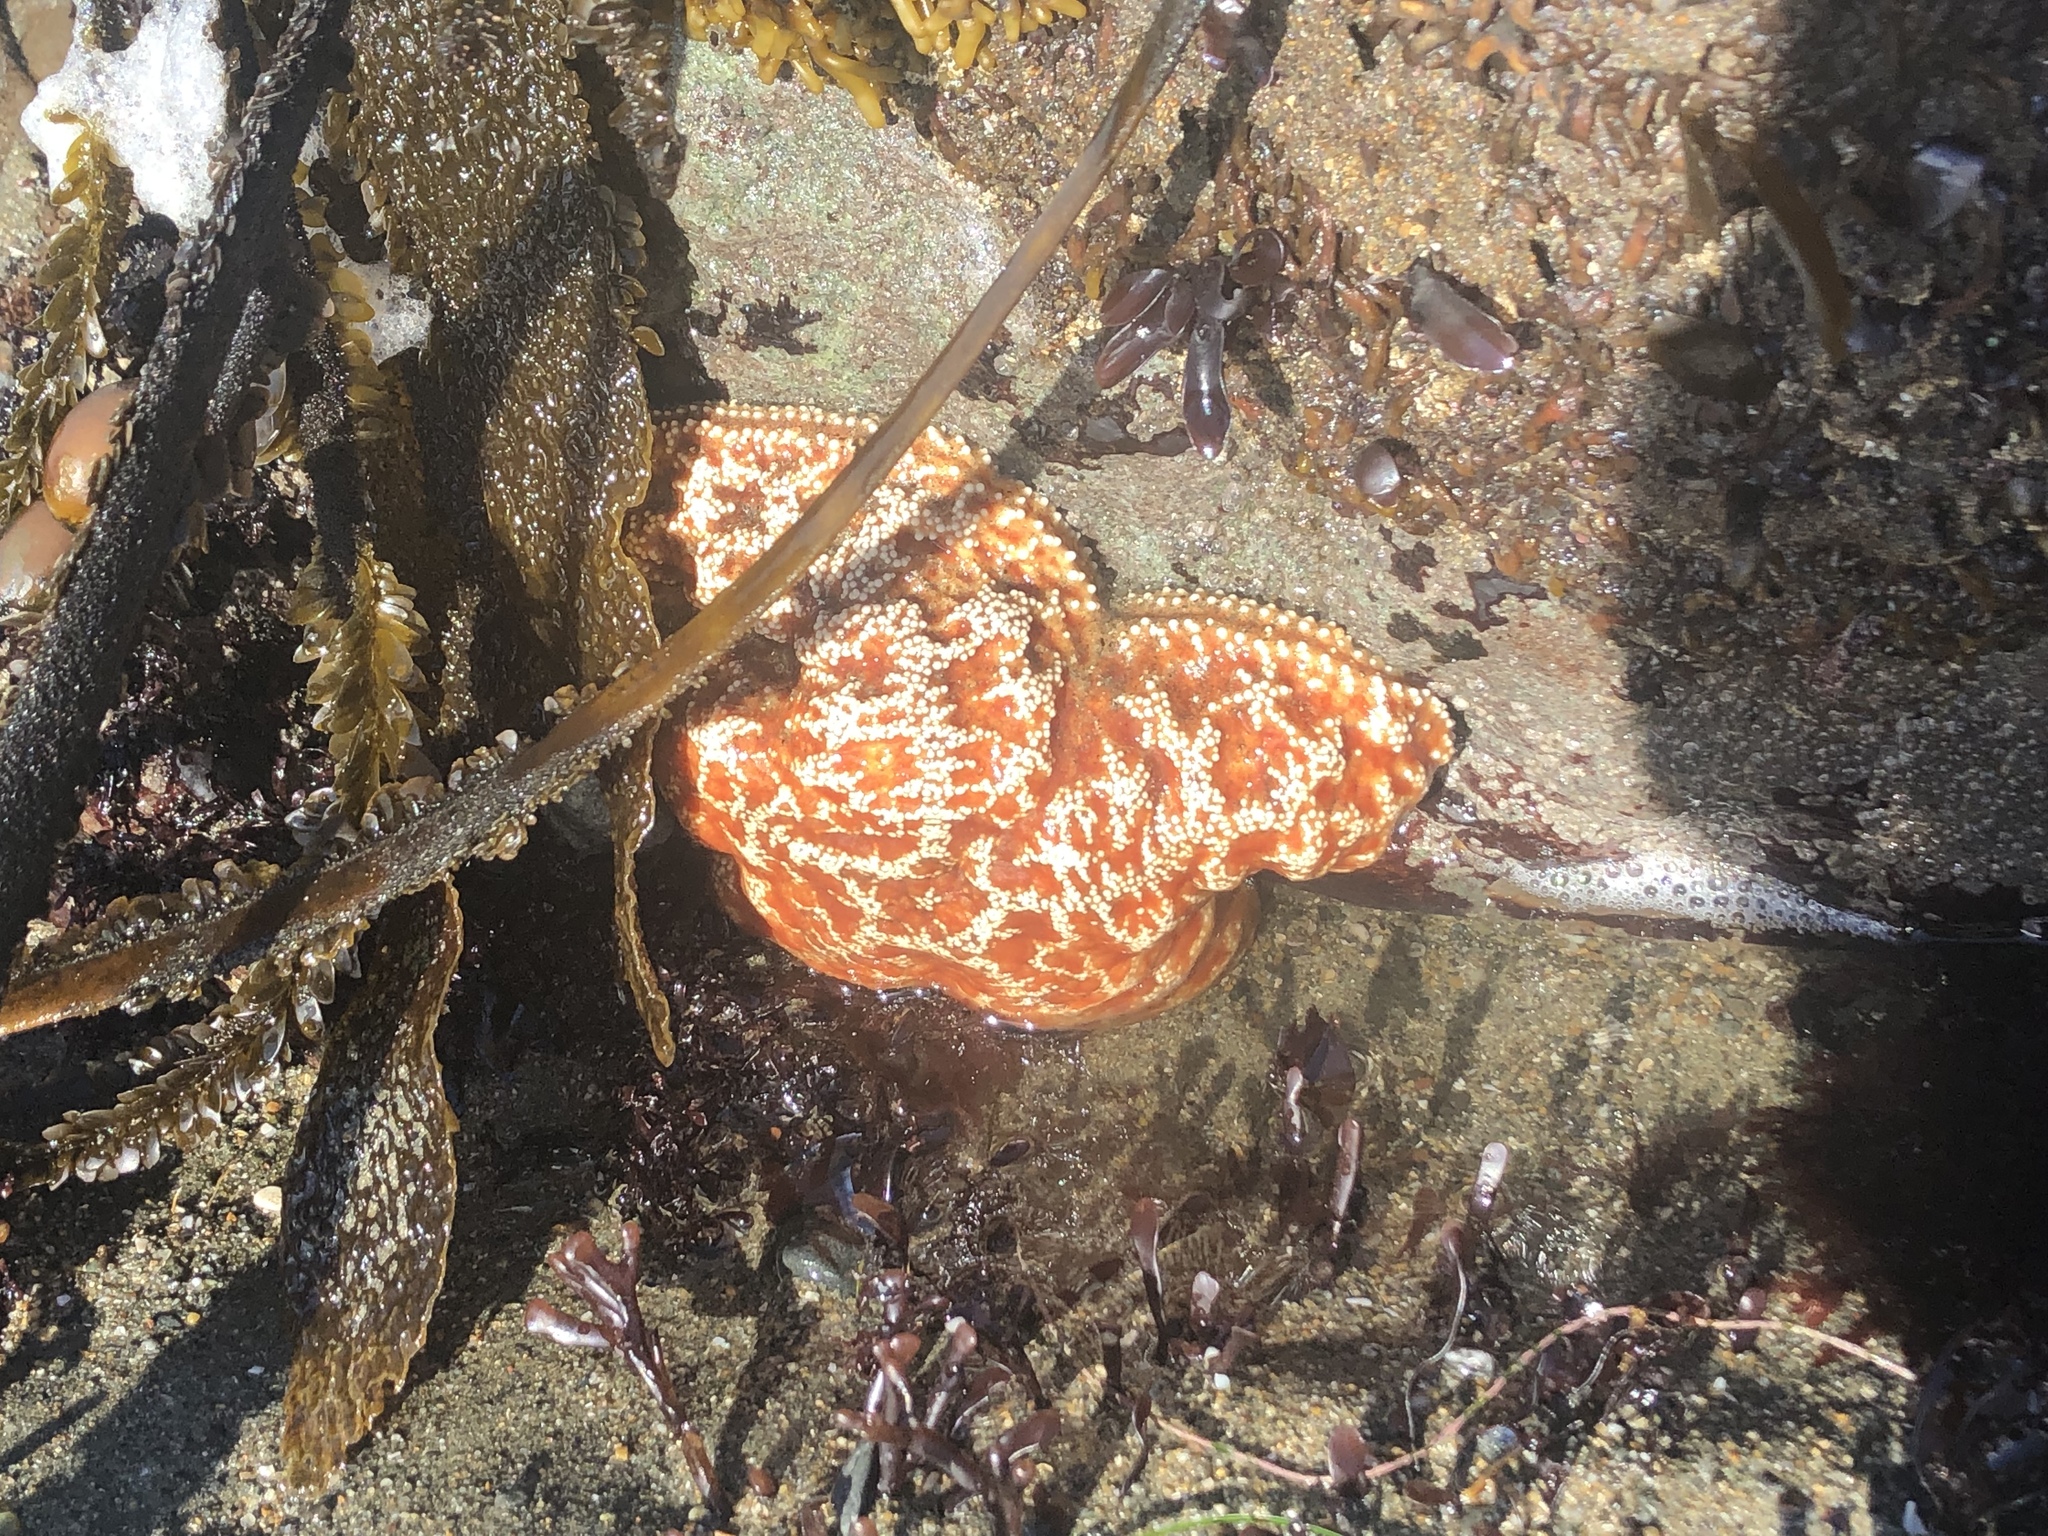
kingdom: Animalia
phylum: Echinodermata
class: Asteroidea
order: Forcipulatida
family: Asteriidae
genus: Pisaster
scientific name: Pisaster ochraceus
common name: Ochre stars
